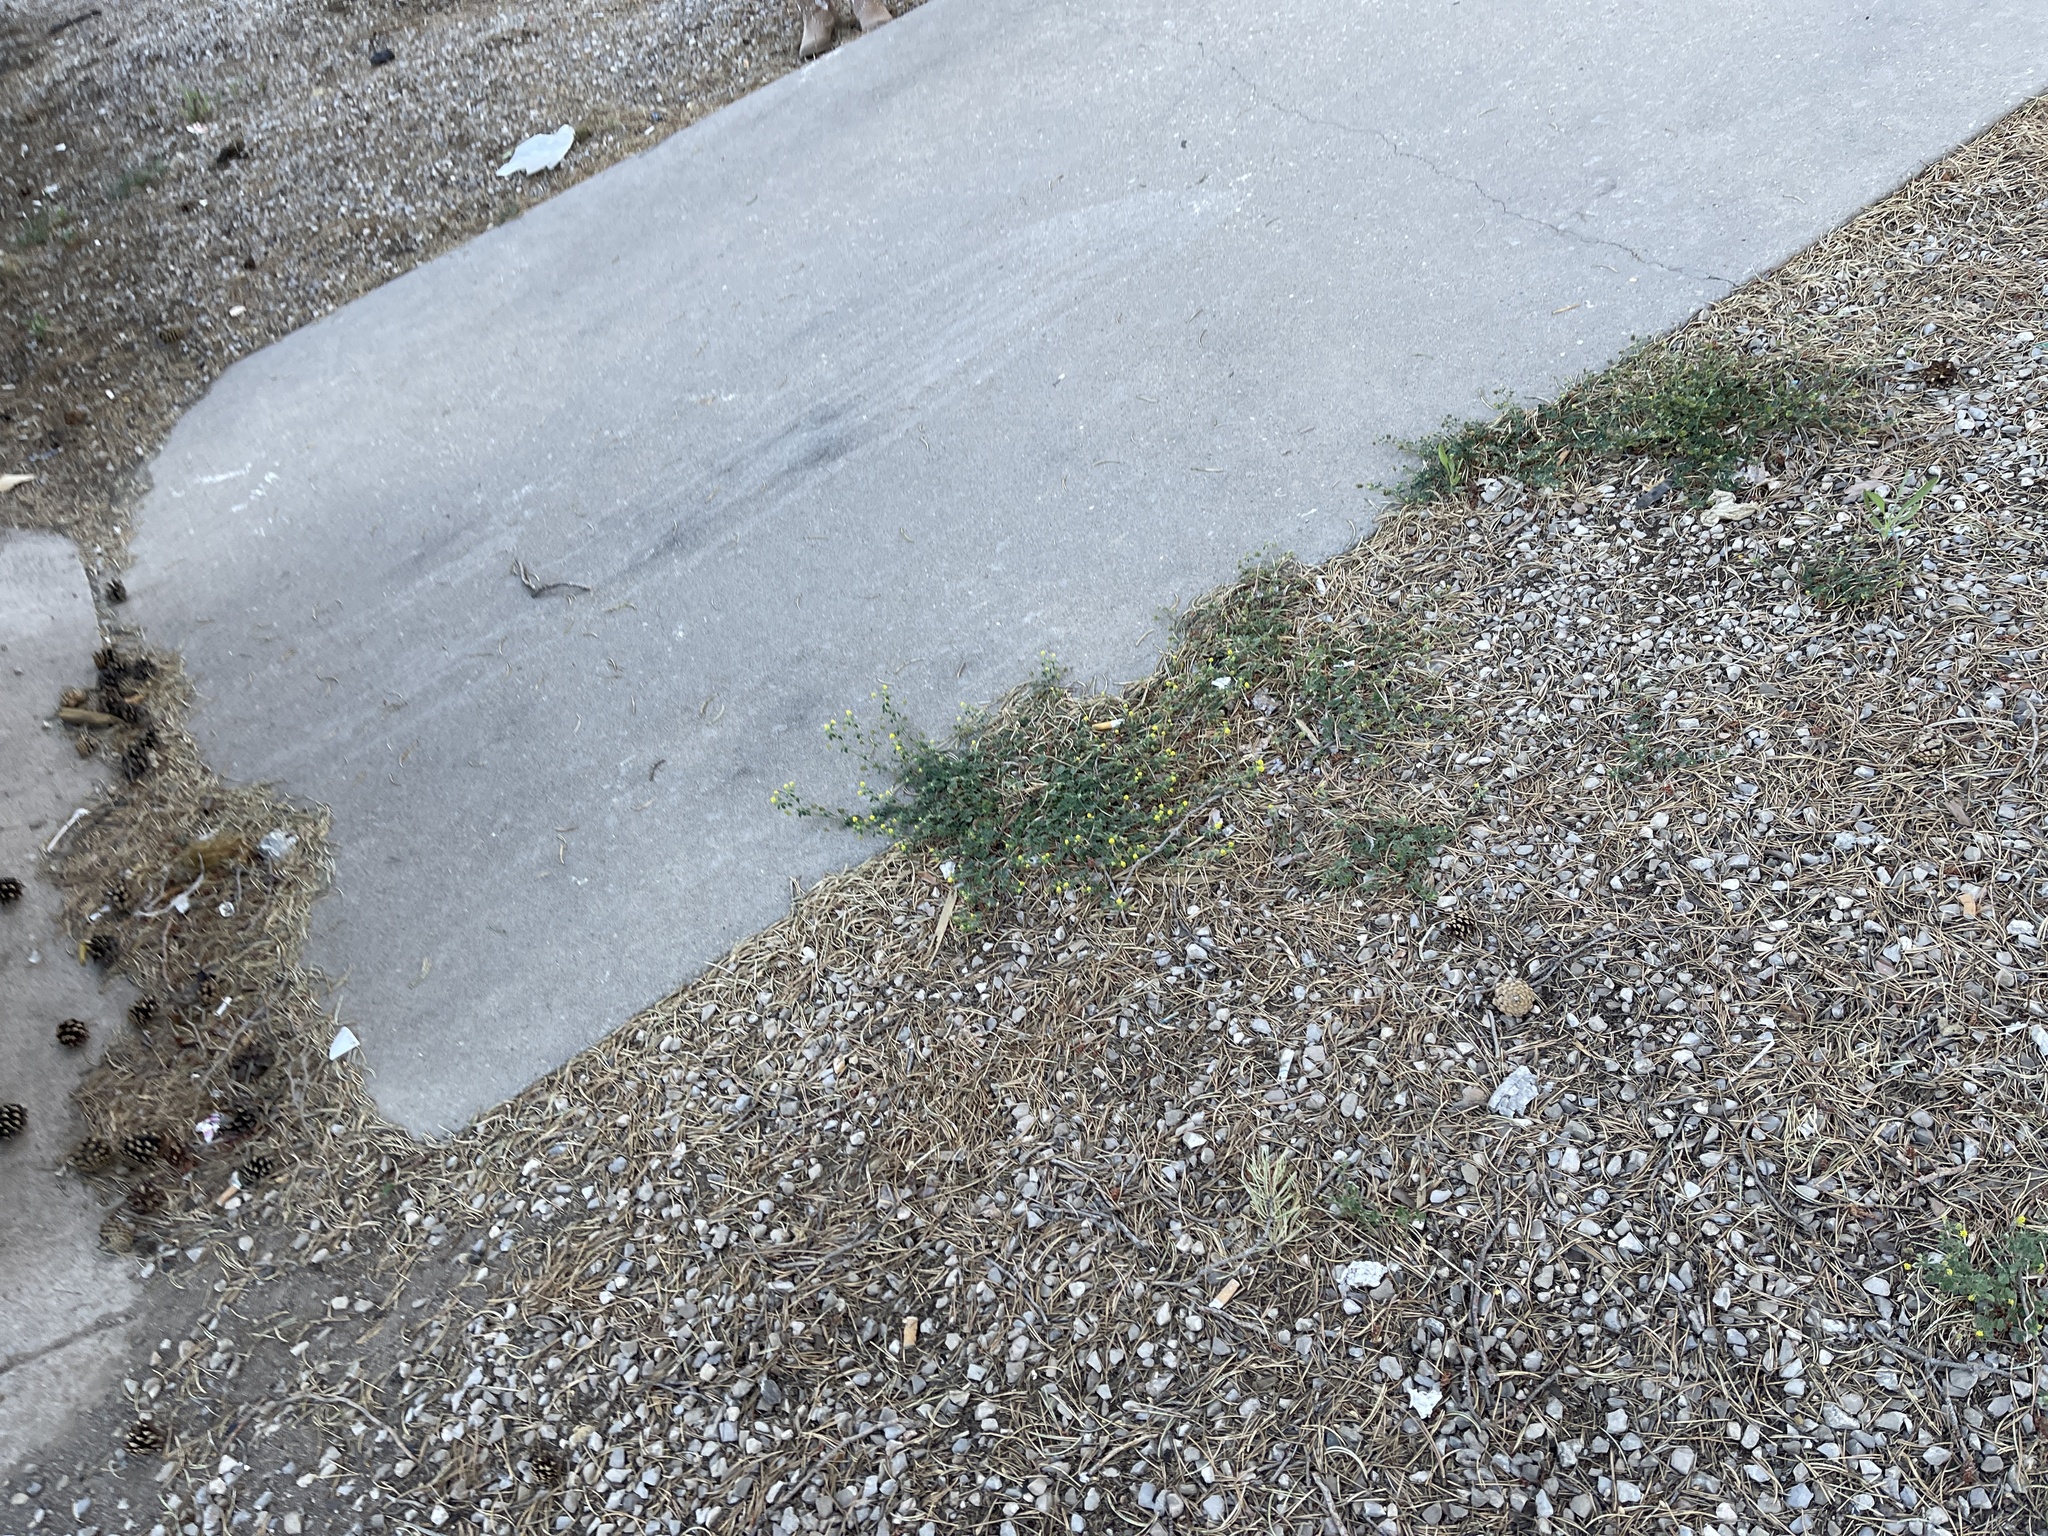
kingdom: Plantae
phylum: Tracheophyta
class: Magnoliopsida
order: Fabales
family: Fabaceae
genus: Medicago
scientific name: Medicago lupulina
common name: Black medick
